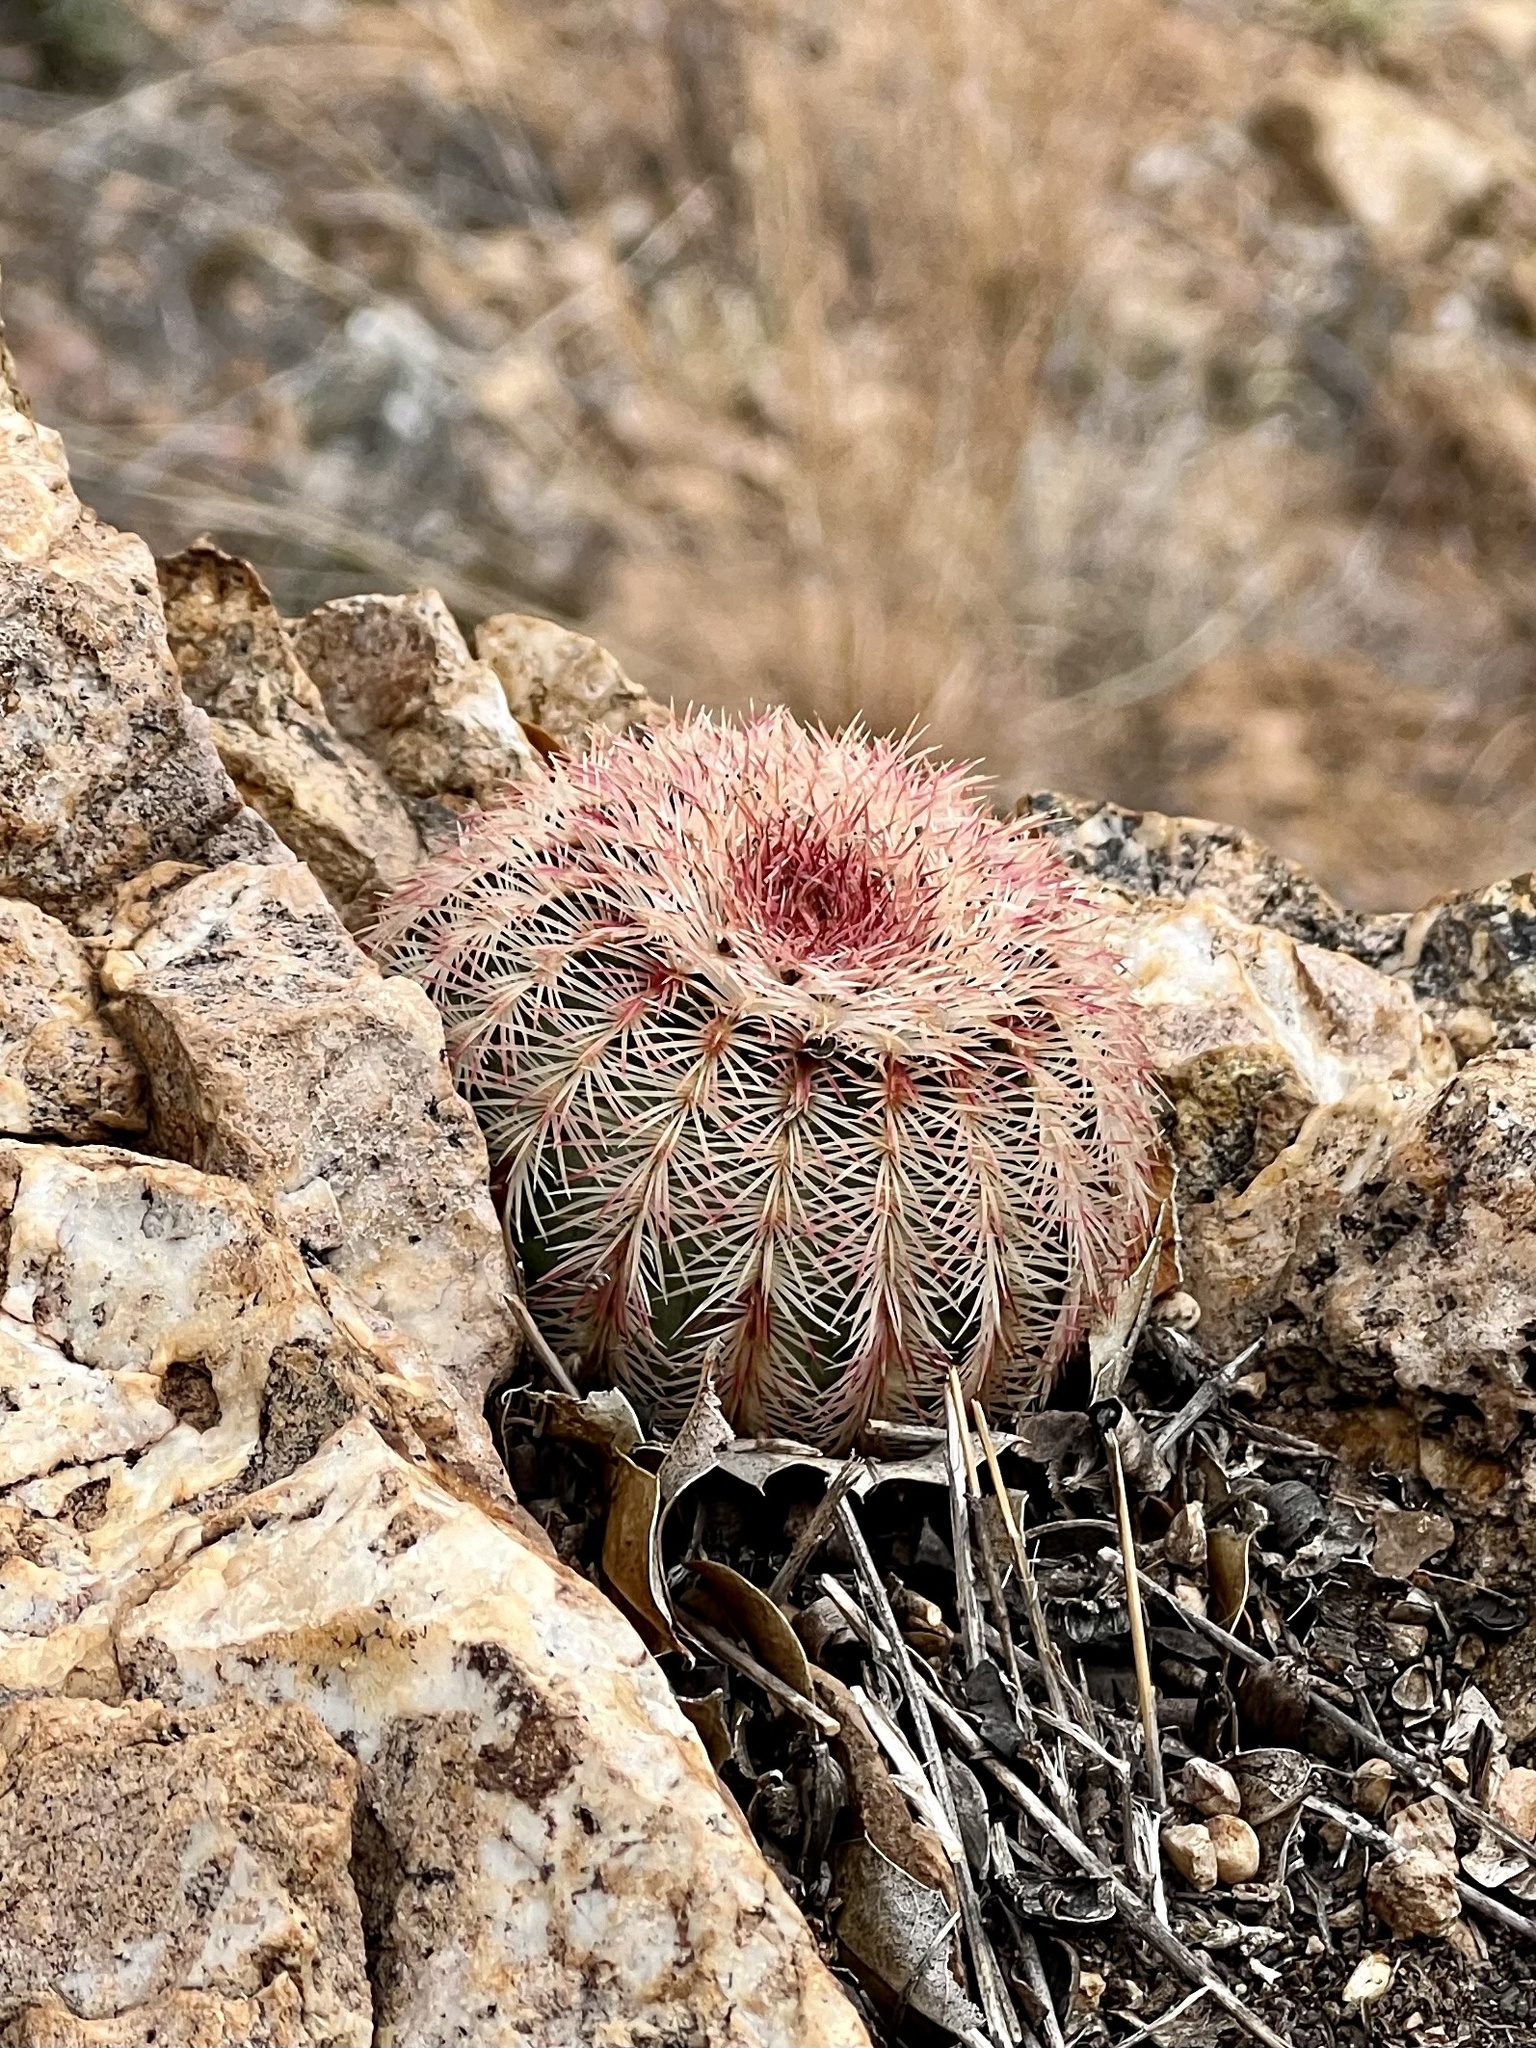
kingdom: Plantae
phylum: Tracheophyta
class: Magnoliopsida
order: Caryophyllales
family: Cactaceae
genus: Echinocereus
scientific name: Echinocereus rigidissimus
